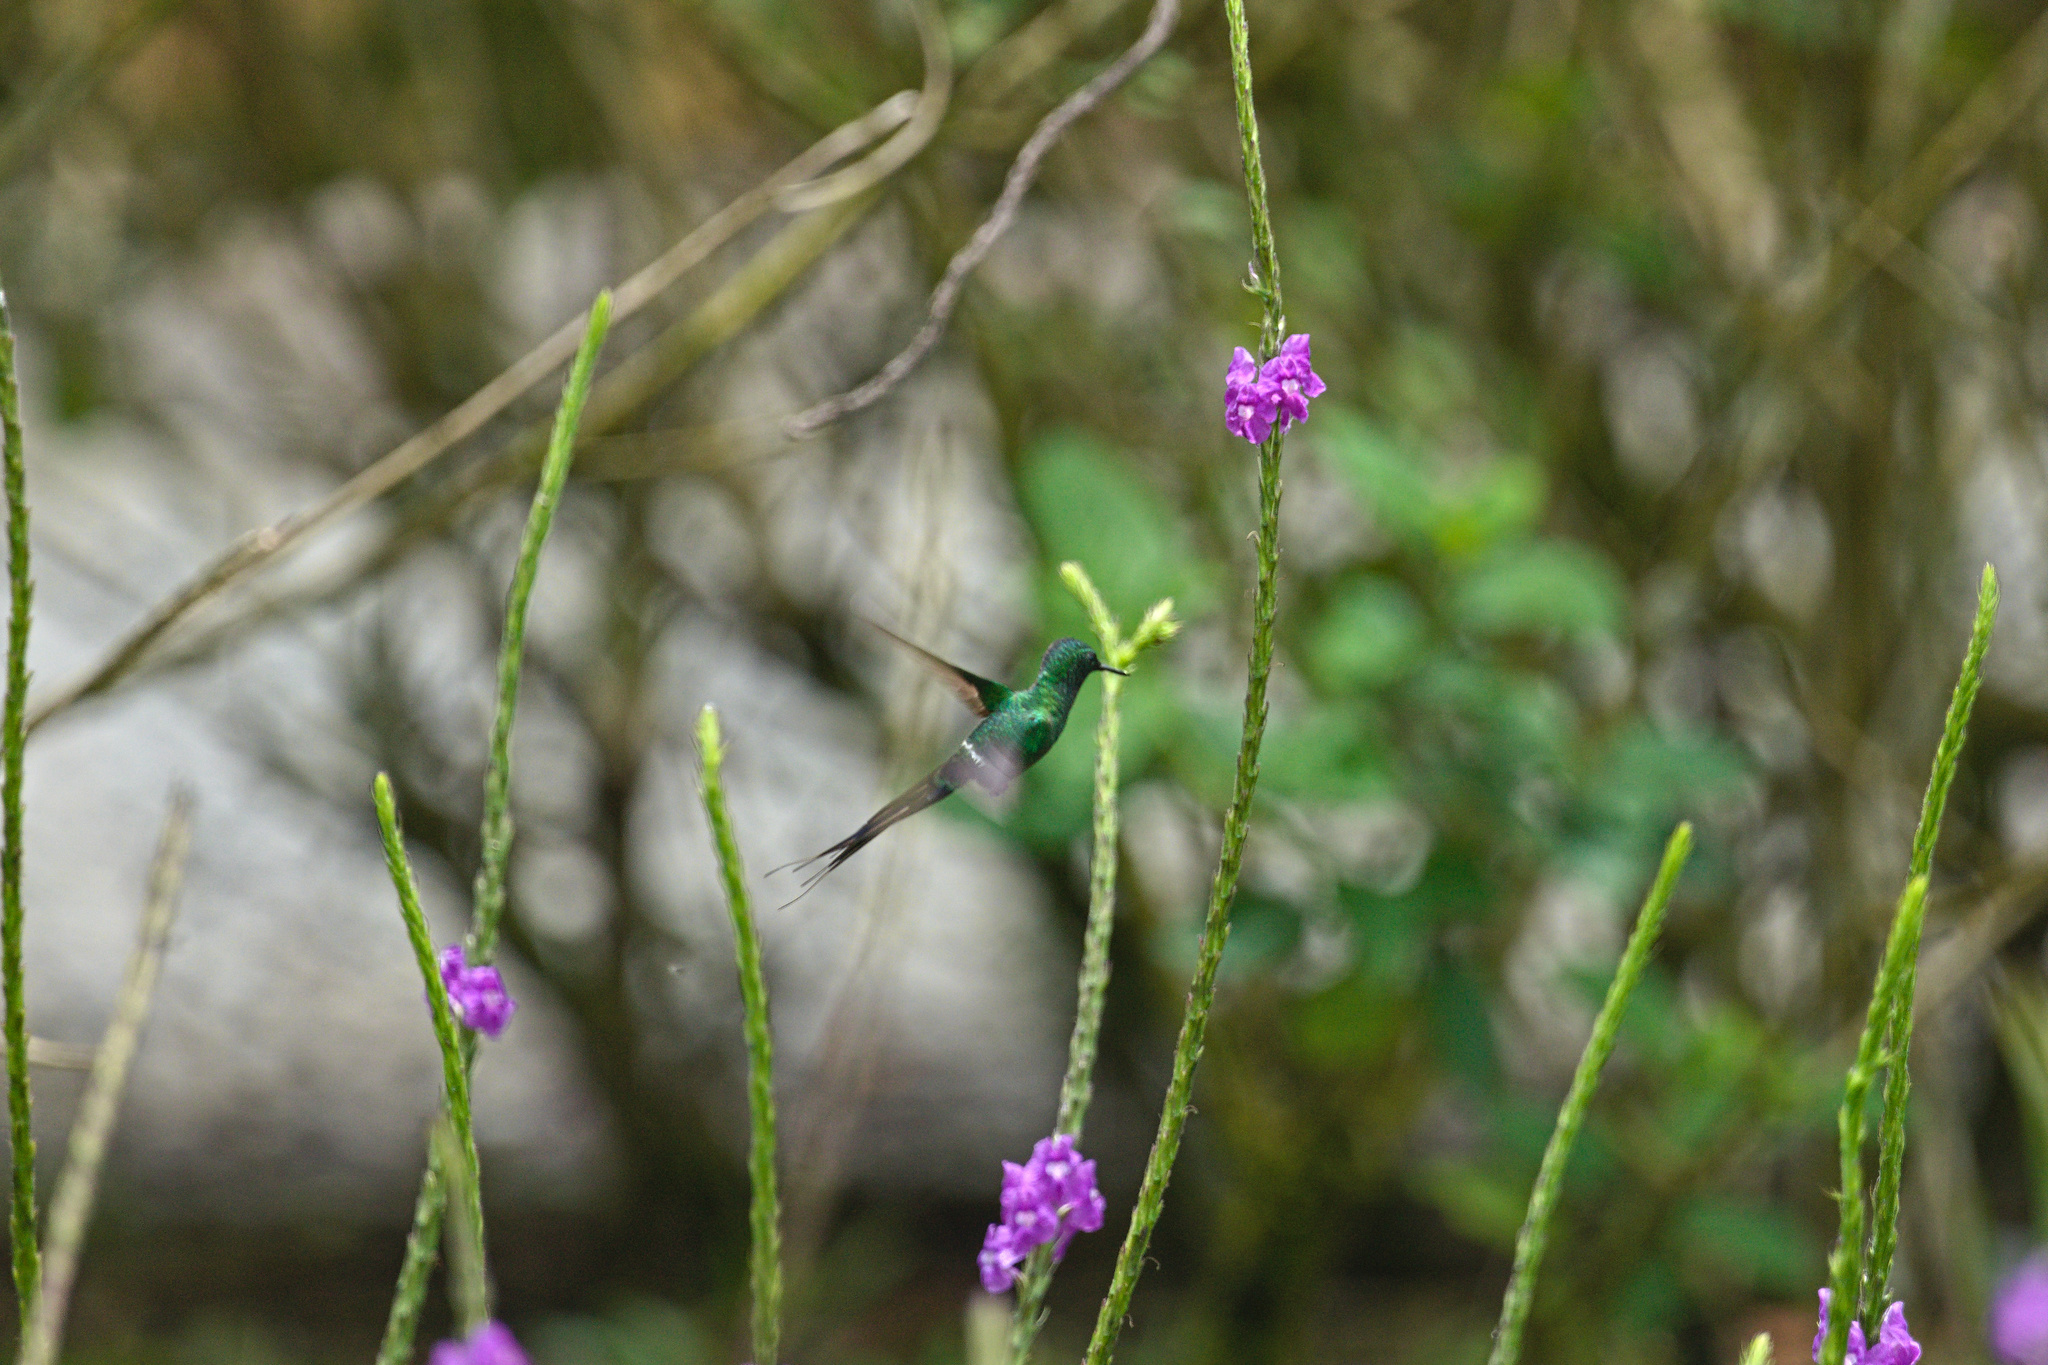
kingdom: Animalia
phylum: Chordata
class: Aves
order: Apodiformes
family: Trochilidae
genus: Discosura
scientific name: Discosura conversii
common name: Green thorntail
